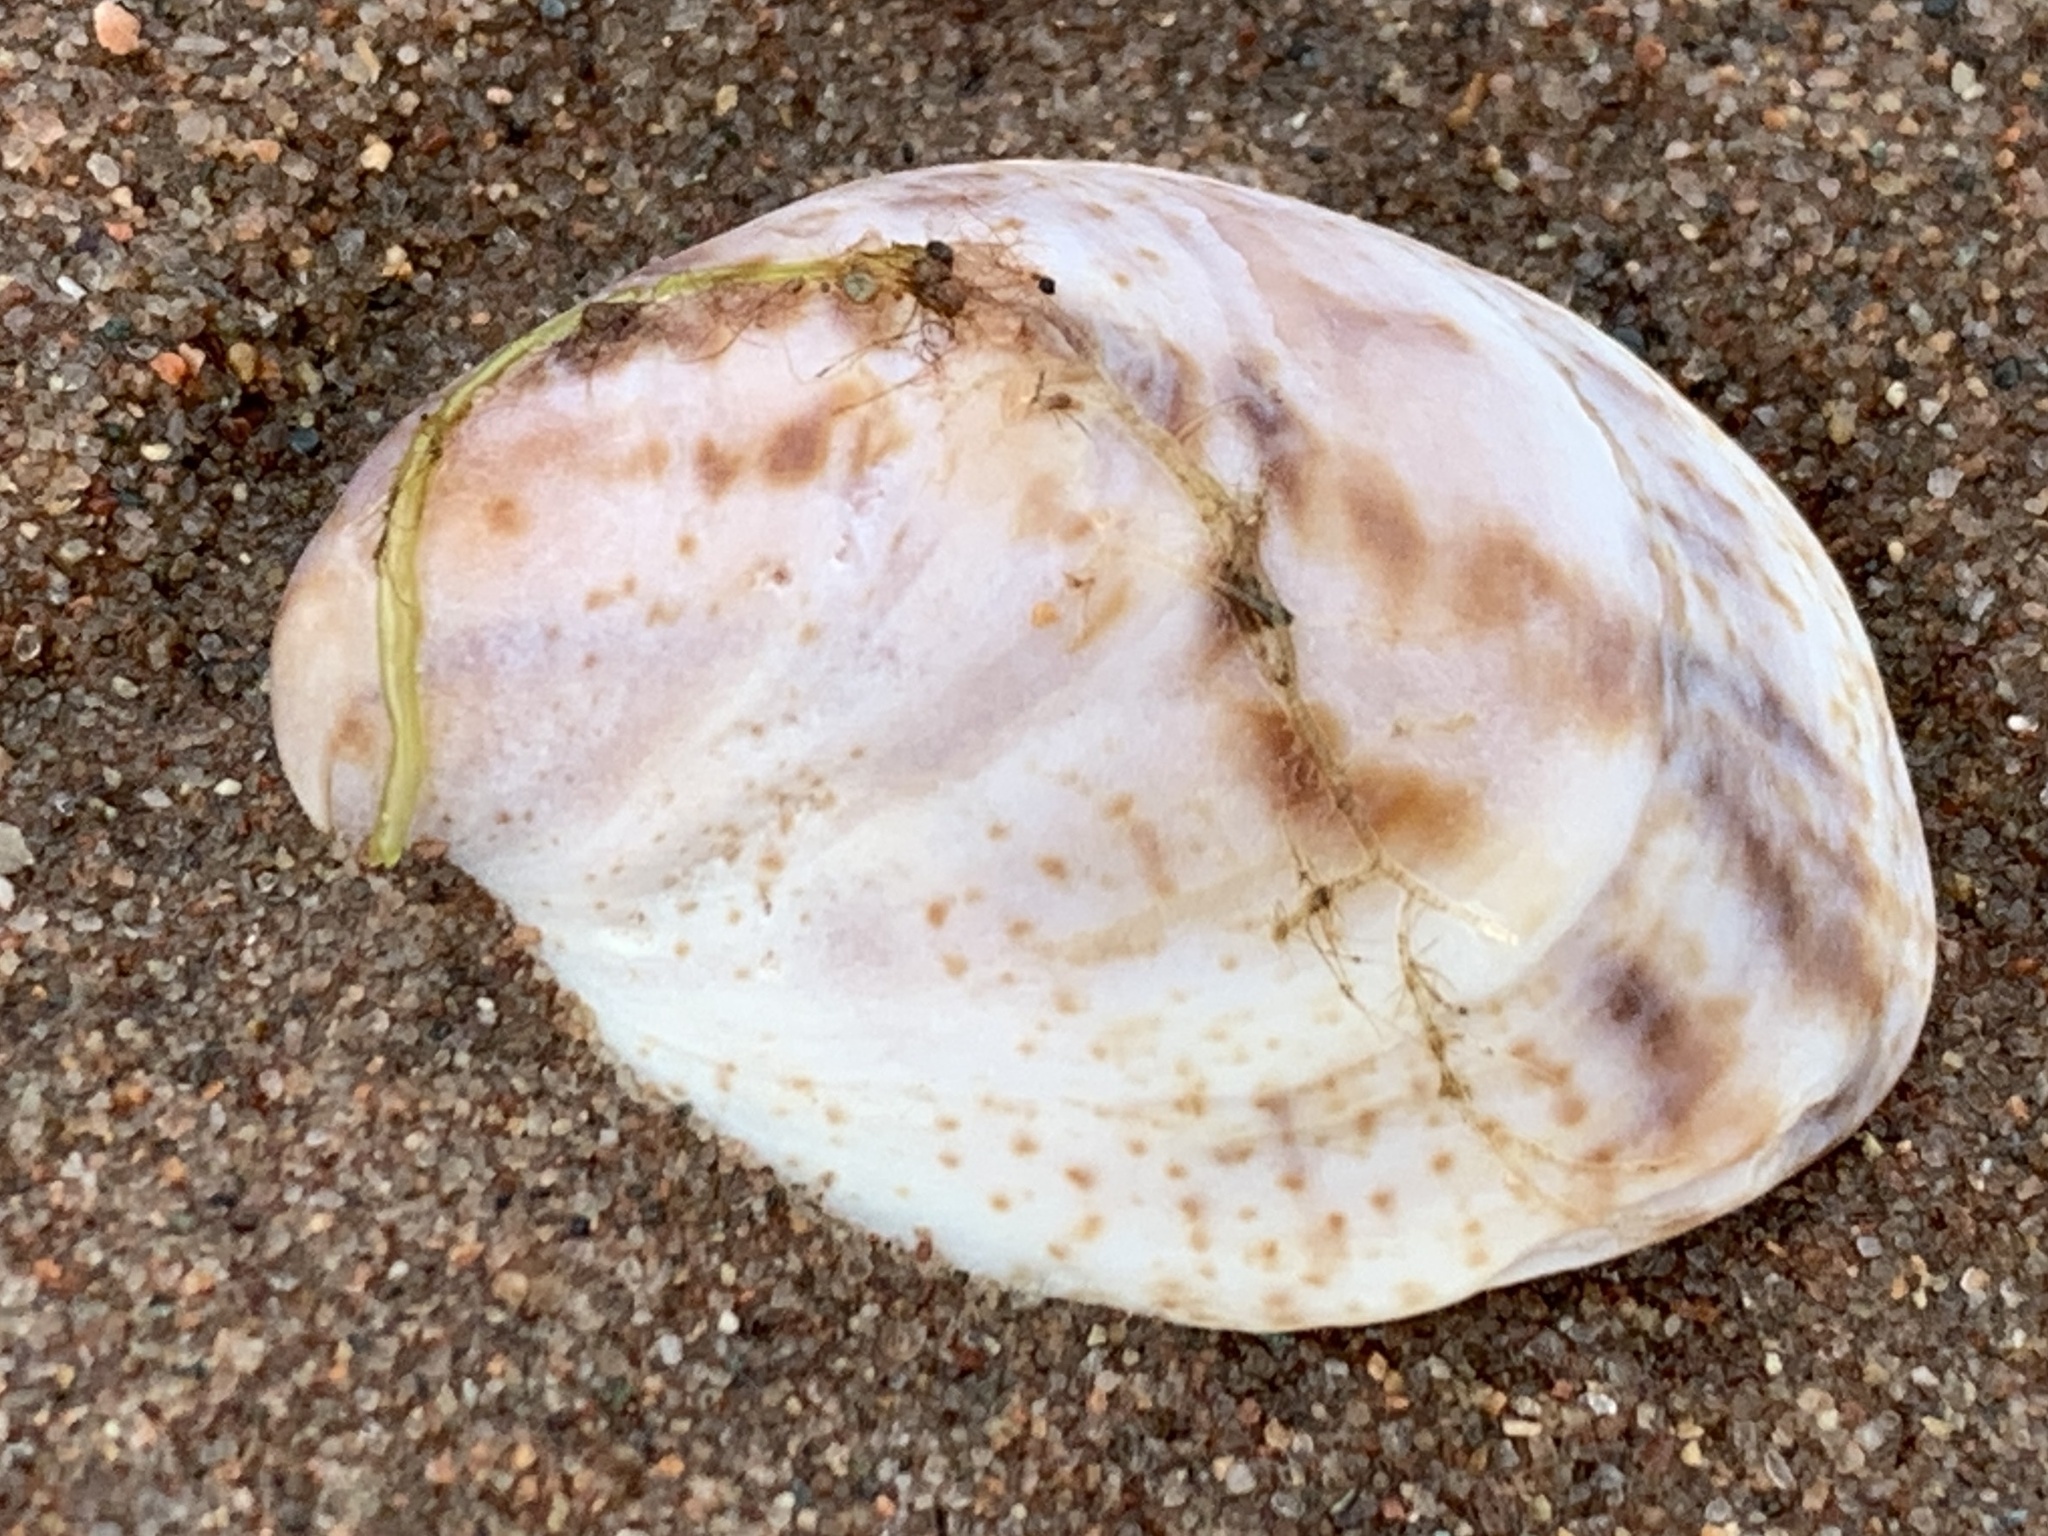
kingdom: Animalia
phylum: Mollusca
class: Gastropoda
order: Littorinimorpha
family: Calyptraeidae
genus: Crepidula
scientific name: Crepidula fornicata
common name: Slipper limpet
